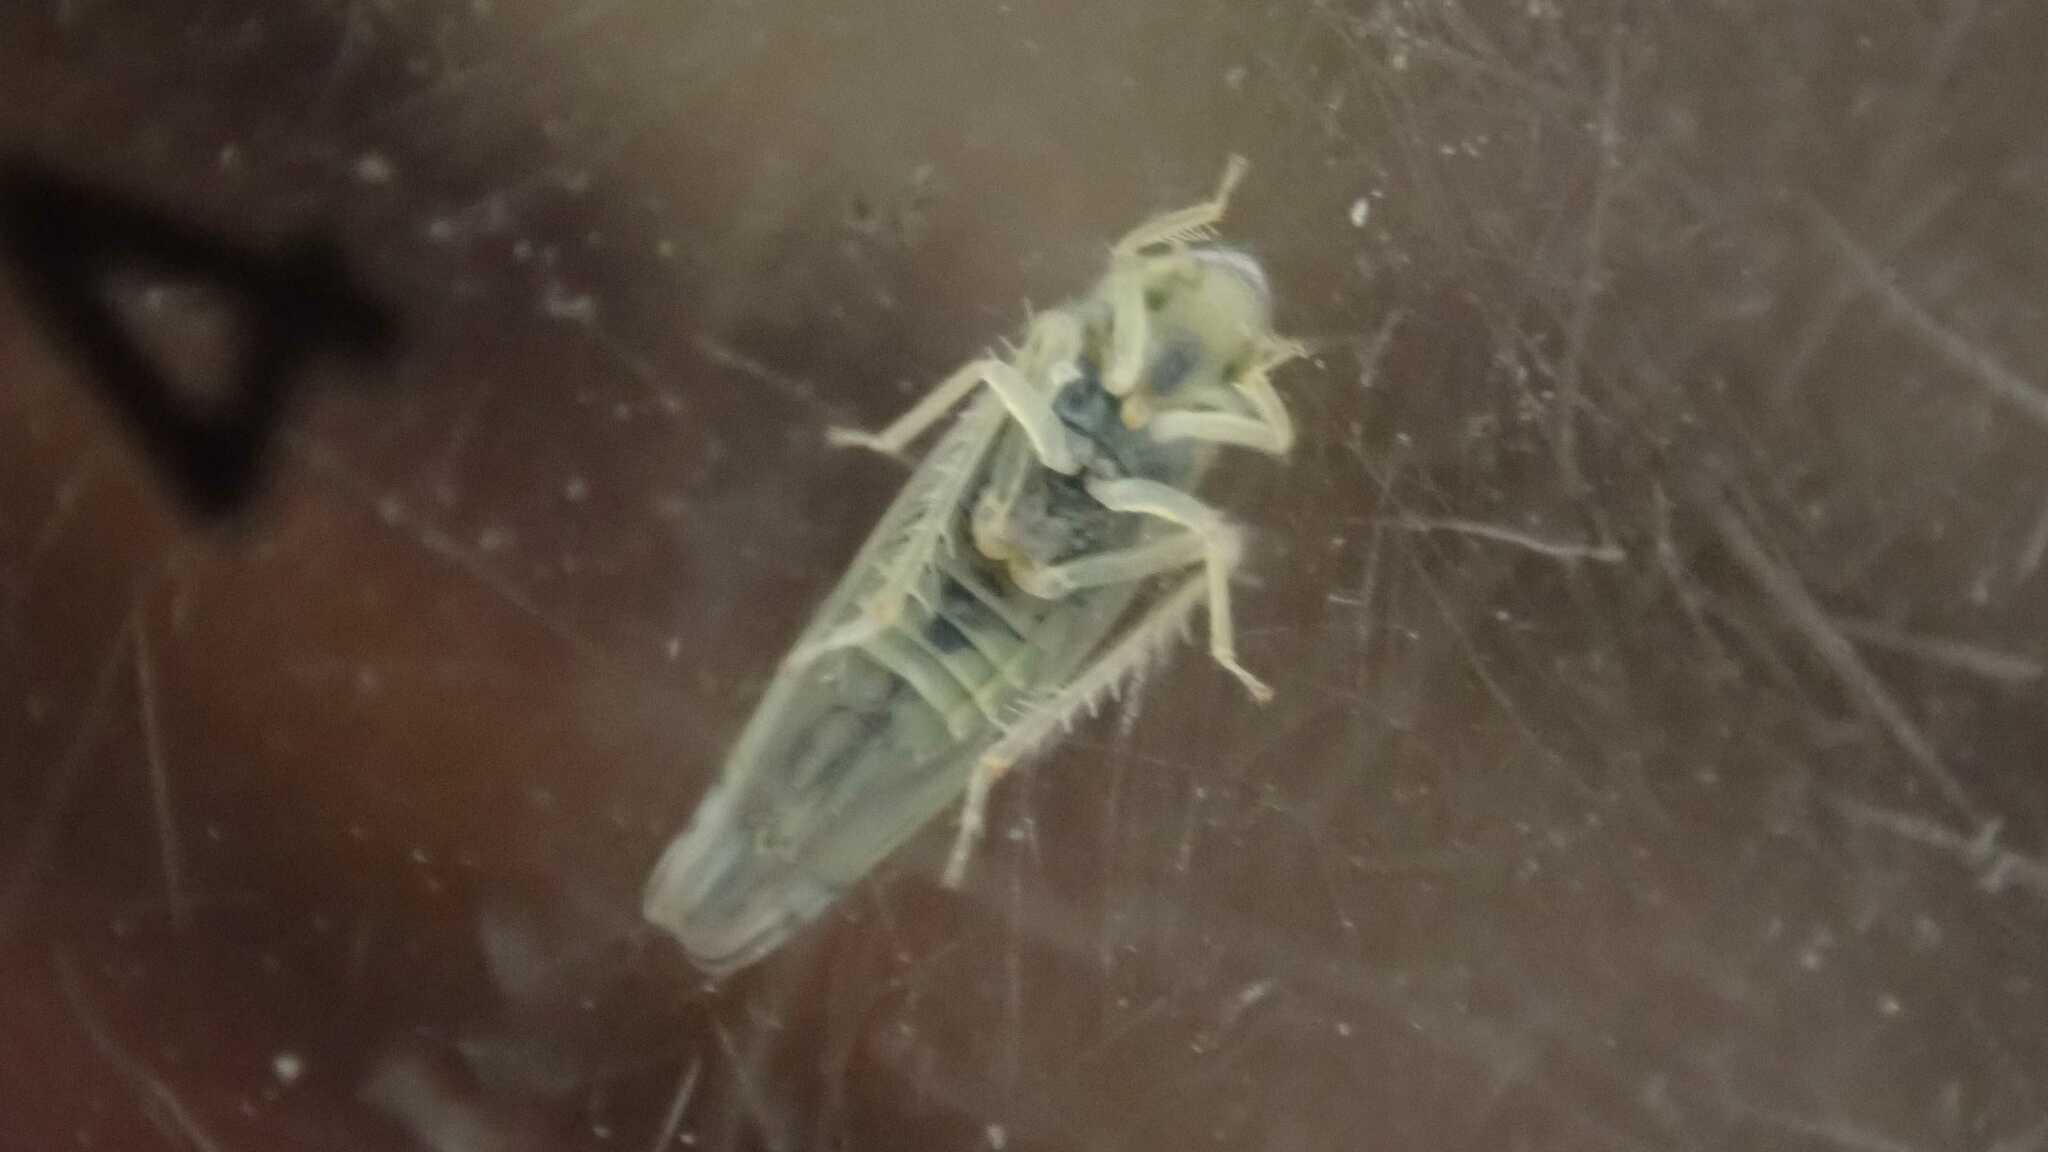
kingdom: Animalia
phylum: Arthropoda
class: Insecta
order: Hemiptera
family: Cicadellidae
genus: Zyginella
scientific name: Zyginella pulchra
